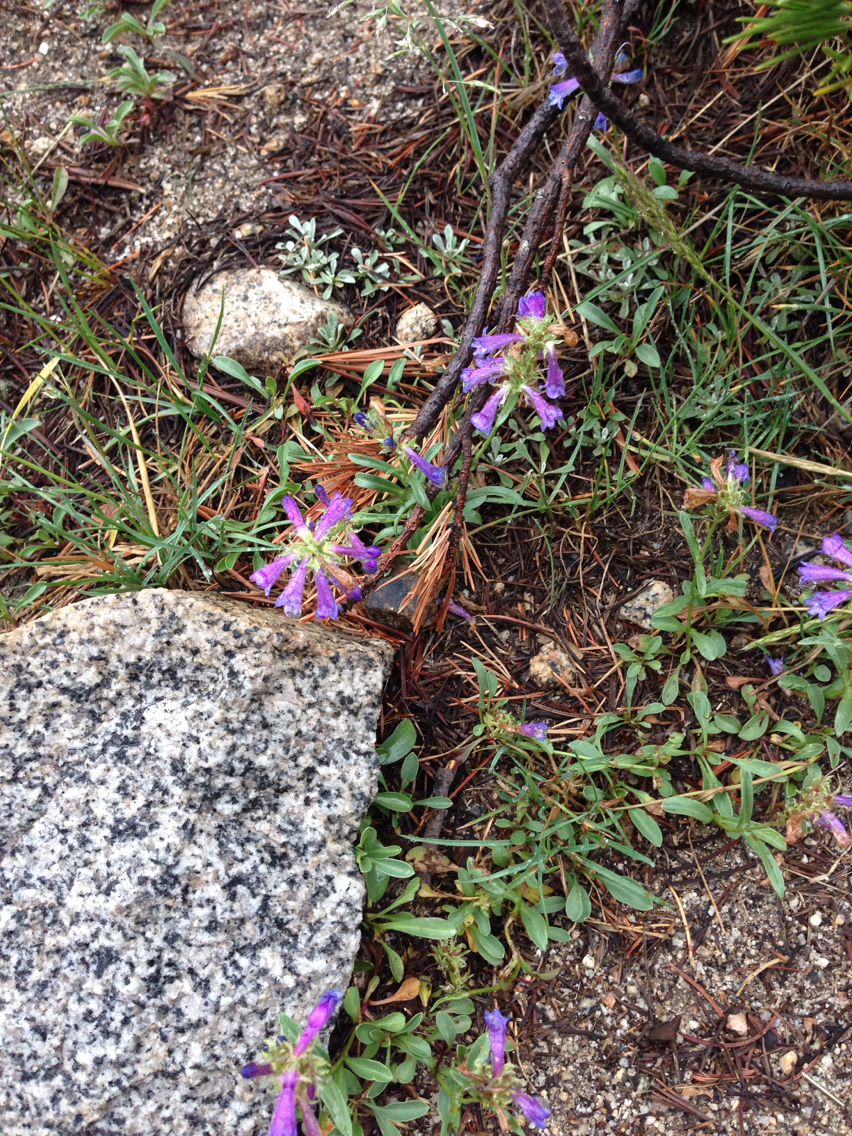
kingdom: Plantae
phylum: Tracheophyta
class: Magnoliopsida
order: Lamiales
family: Plantaginaceae
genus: Penstemon
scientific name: Penstemon heterodoxus
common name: Sierran penstemon
